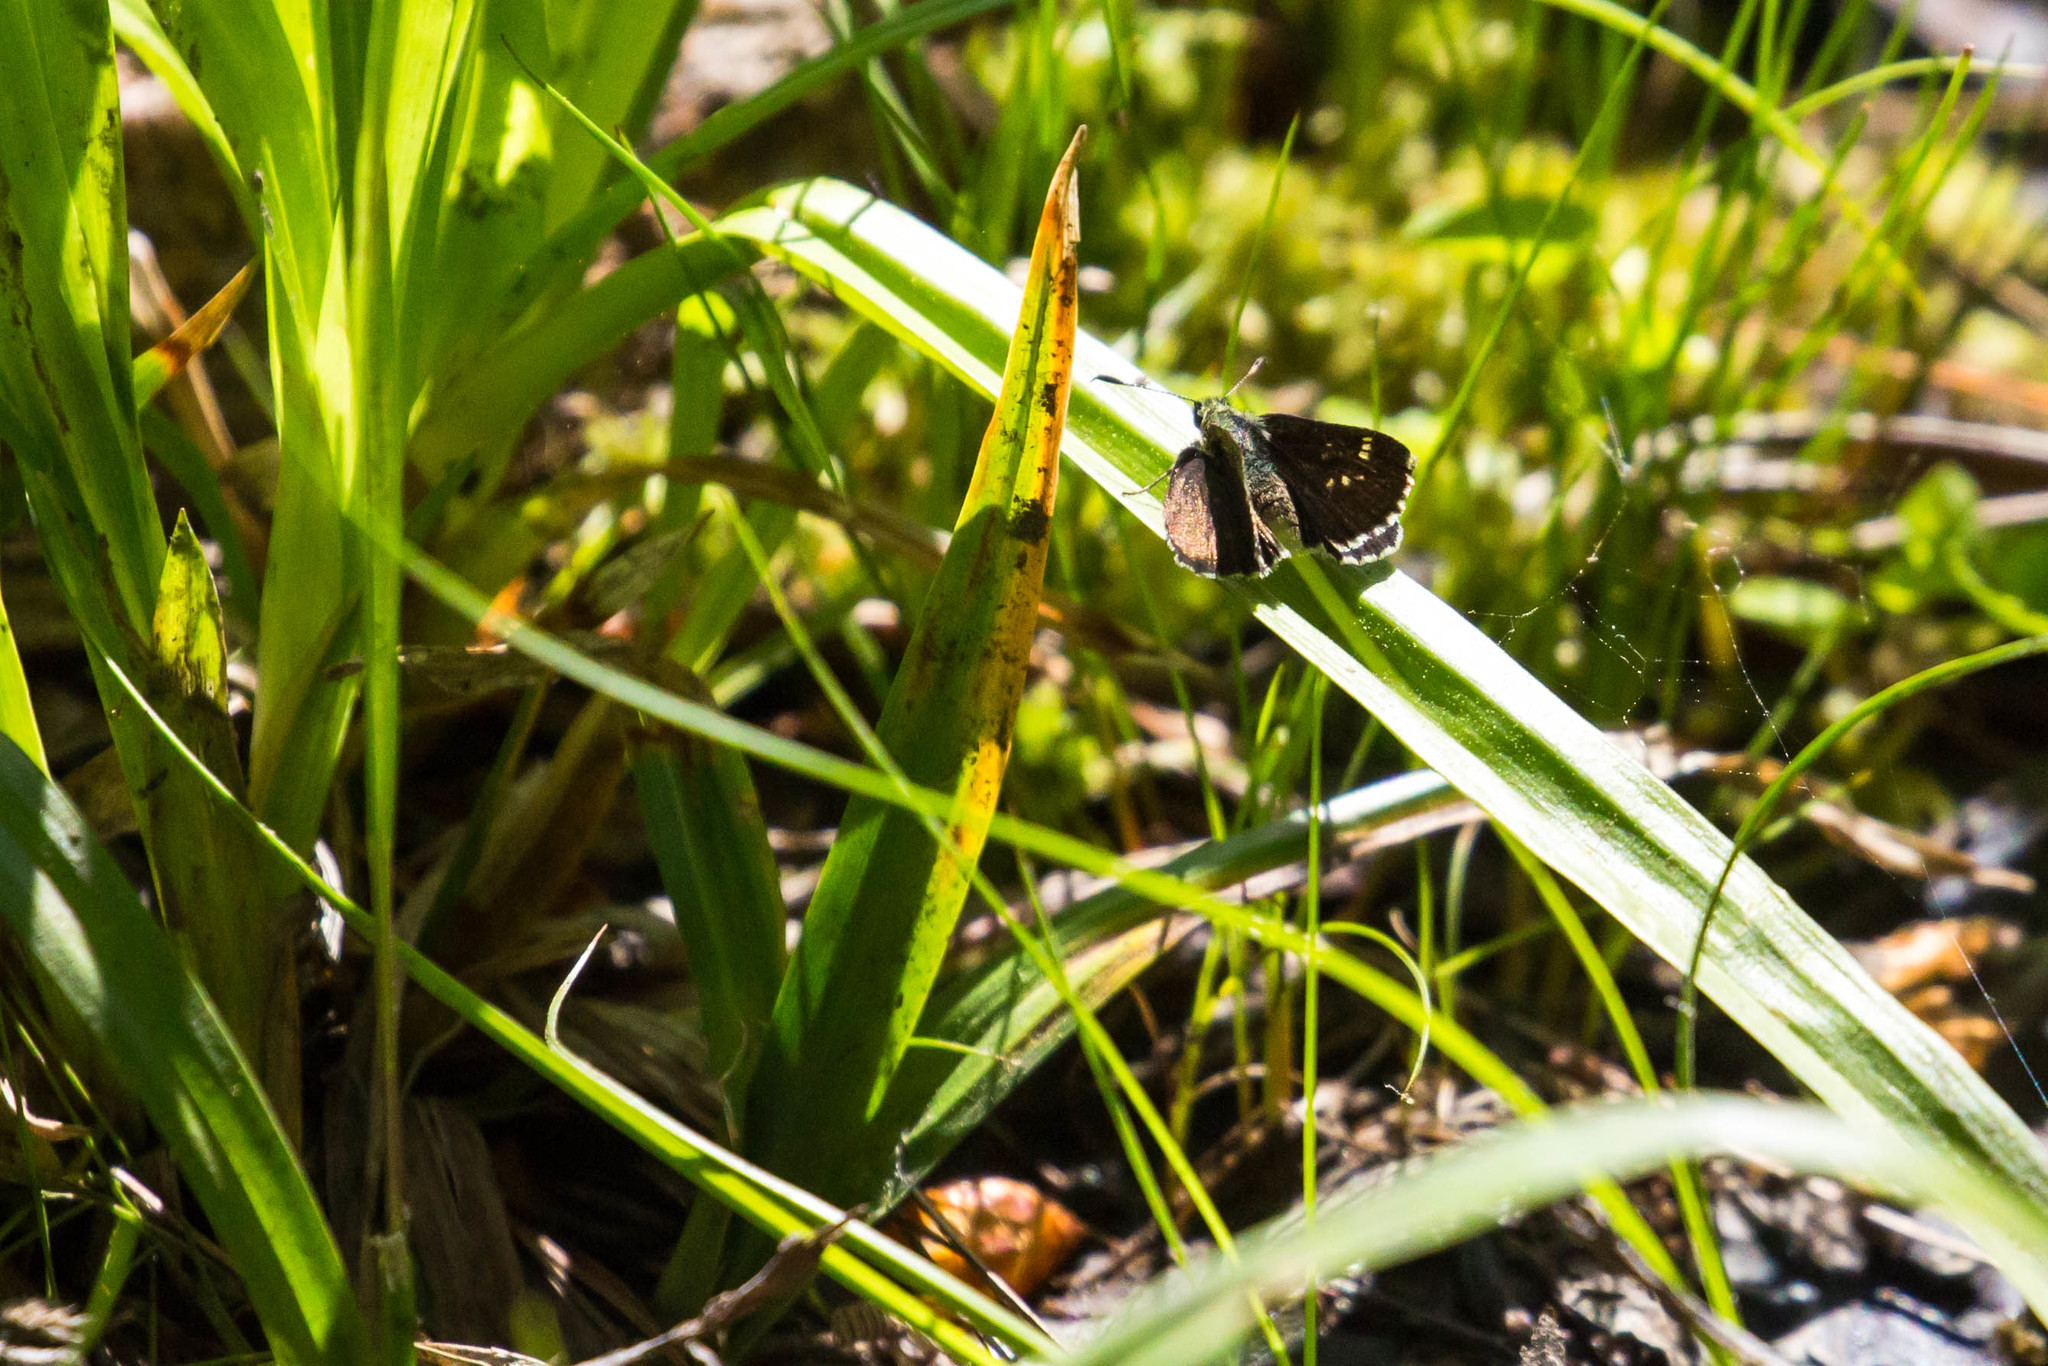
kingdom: Animalia
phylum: Arthropoda
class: Insecta
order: Lepidoptera
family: Hesperiidae
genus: Mastor
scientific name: Mastor hegon
